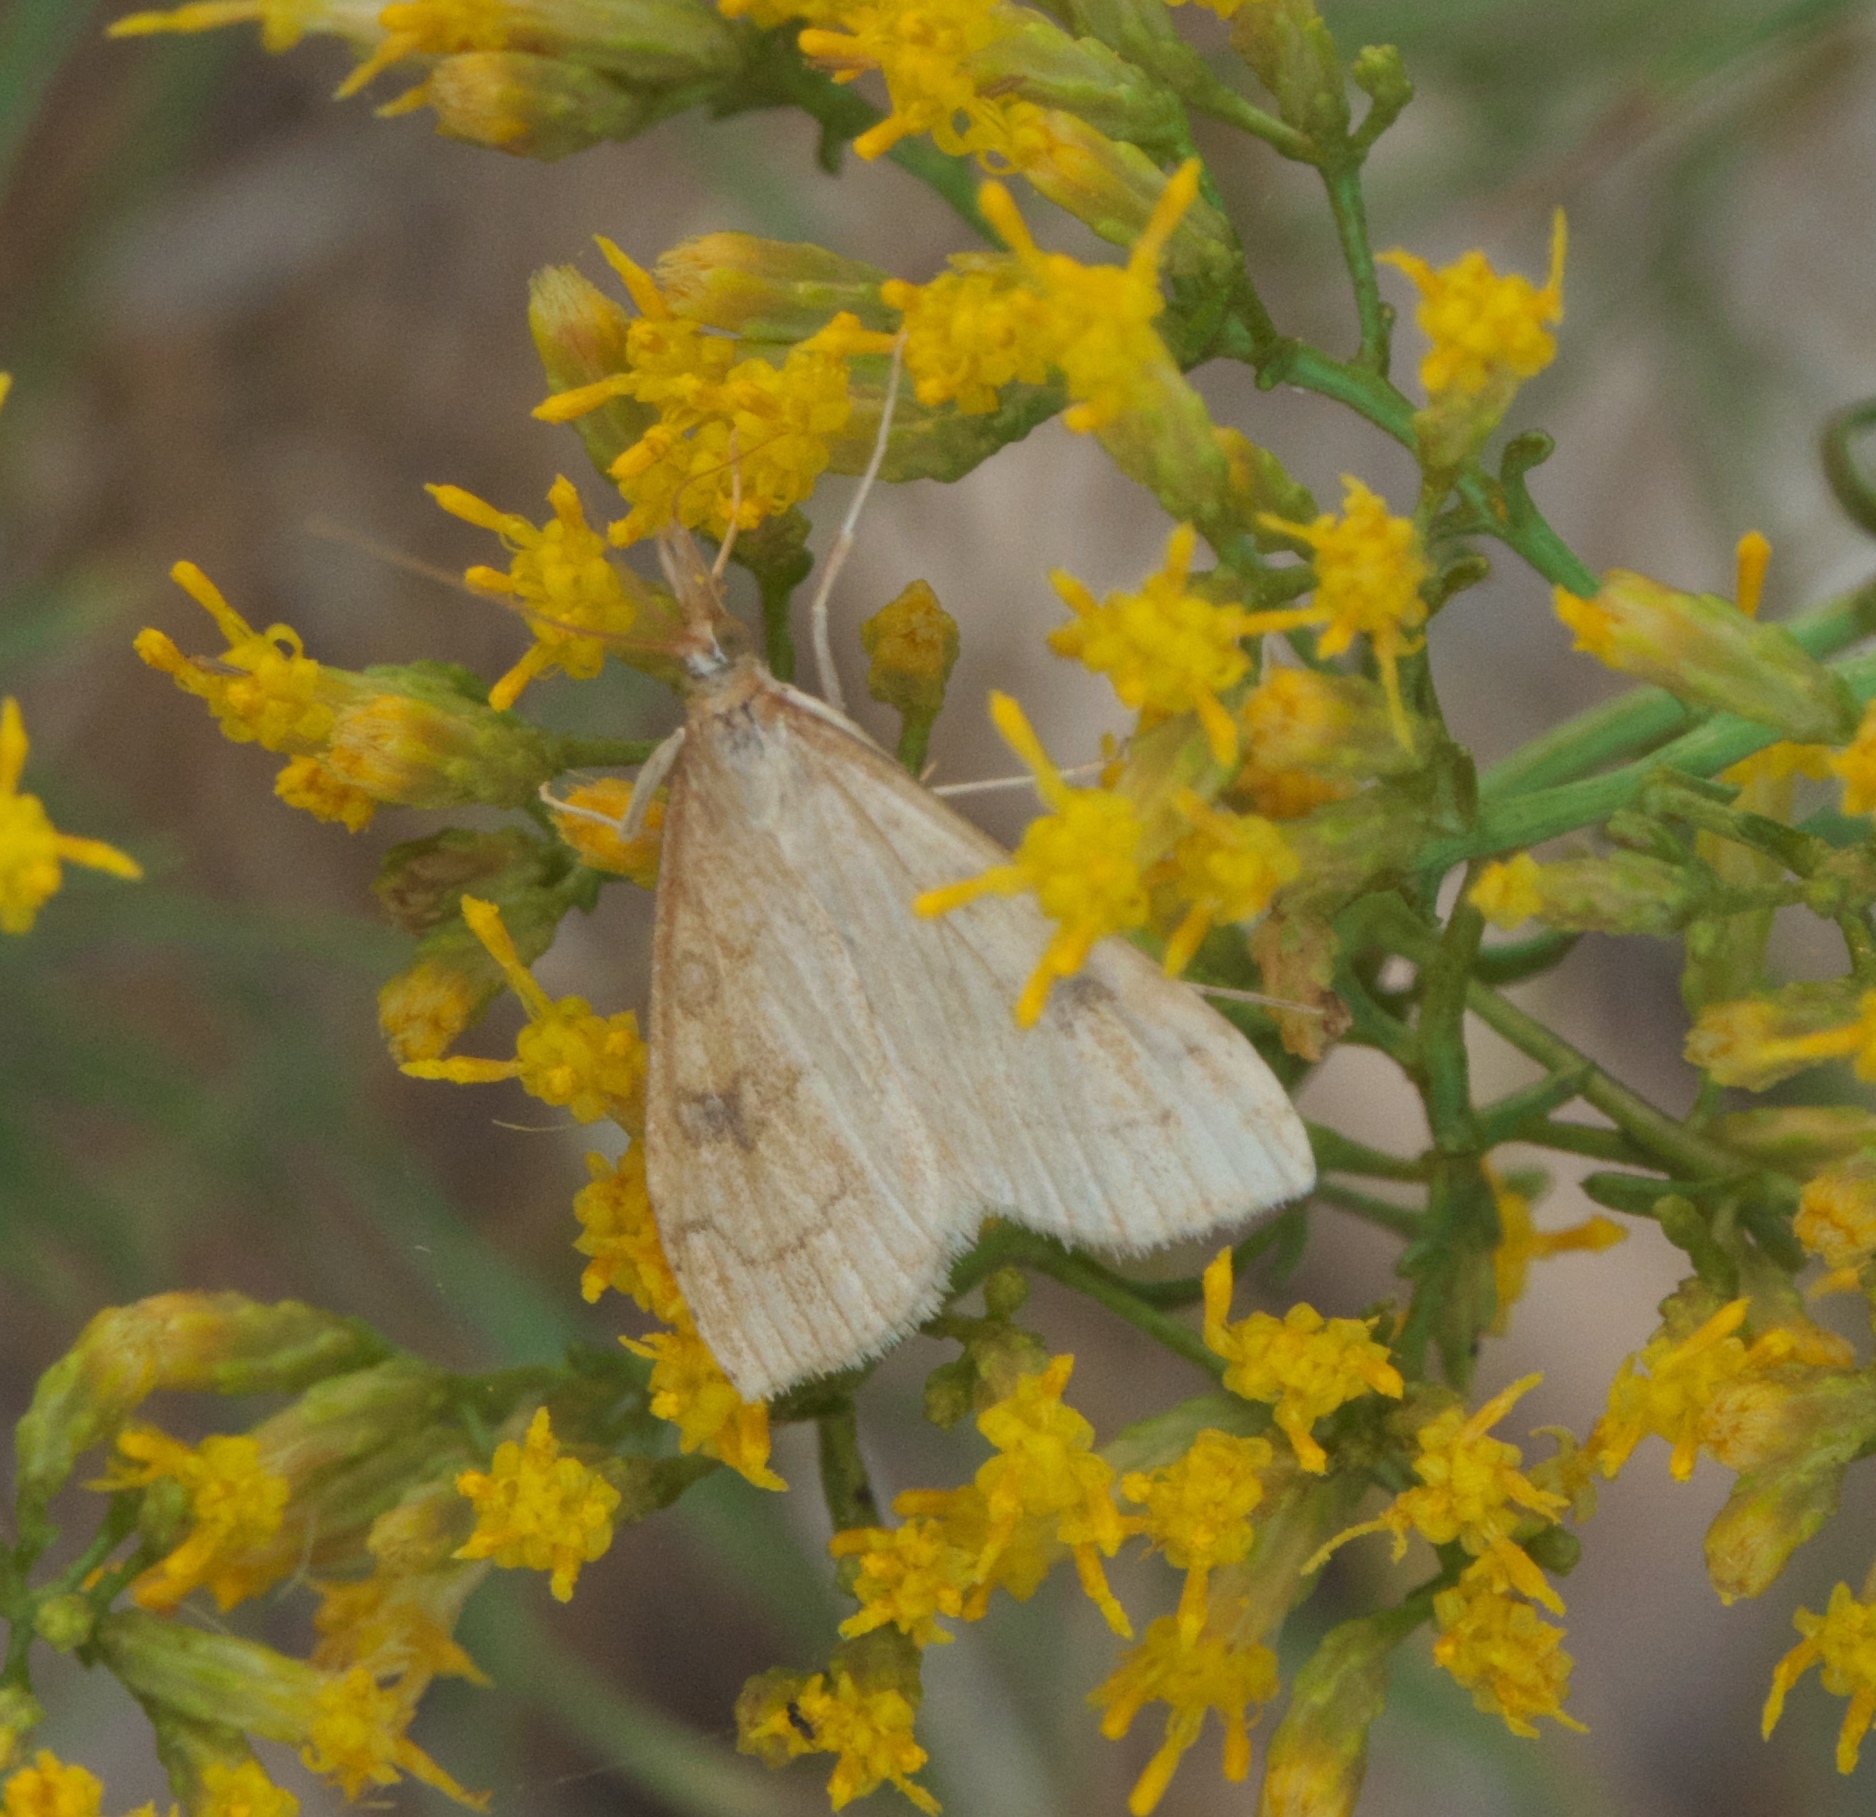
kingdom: Animalia
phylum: Arthropoda
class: Insecta
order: Lepidoptera
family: Crambidae
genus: Udea
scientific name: Udea rubigalis
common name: Celery leaftier moth
